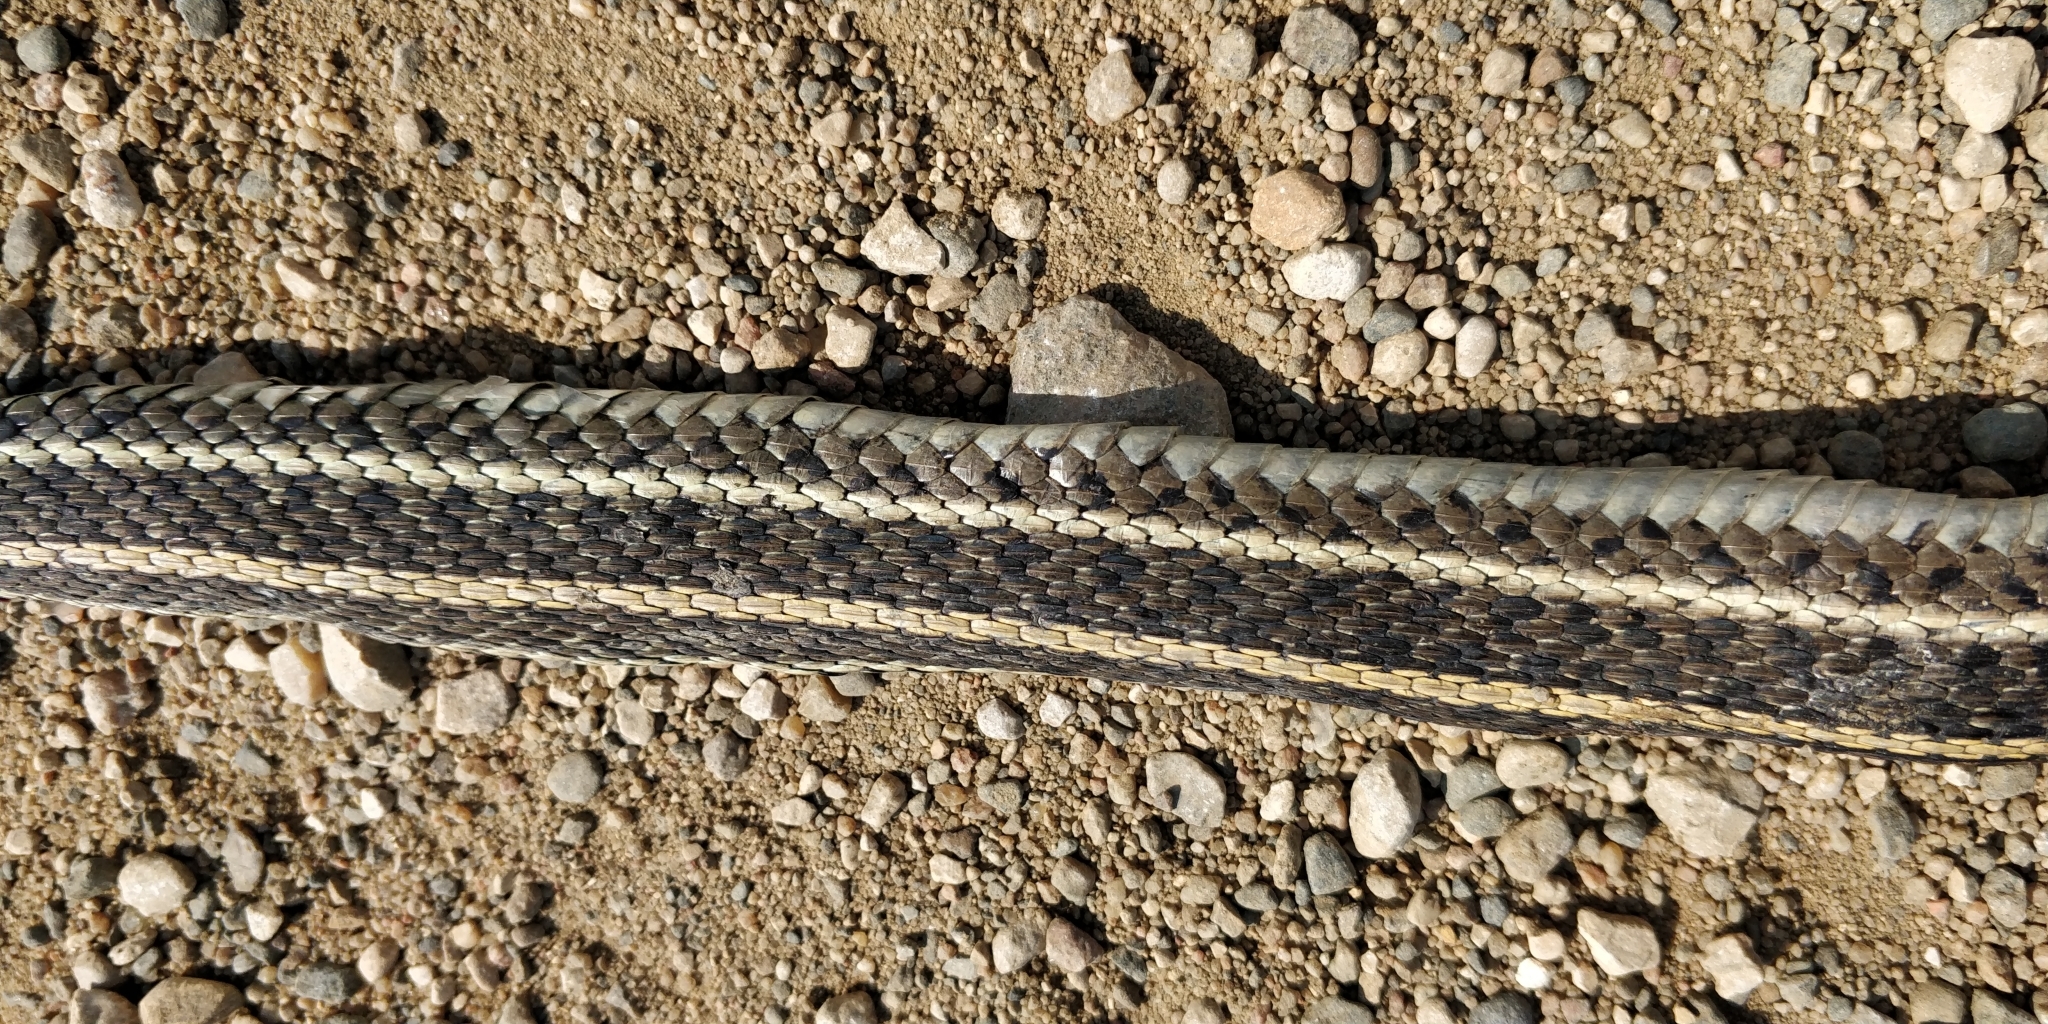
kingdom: Animalia
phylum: Chordata
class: Squamata
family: Colubridae
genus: Thamnophis
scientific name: Thamnophis radix
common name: Plains garter snake
